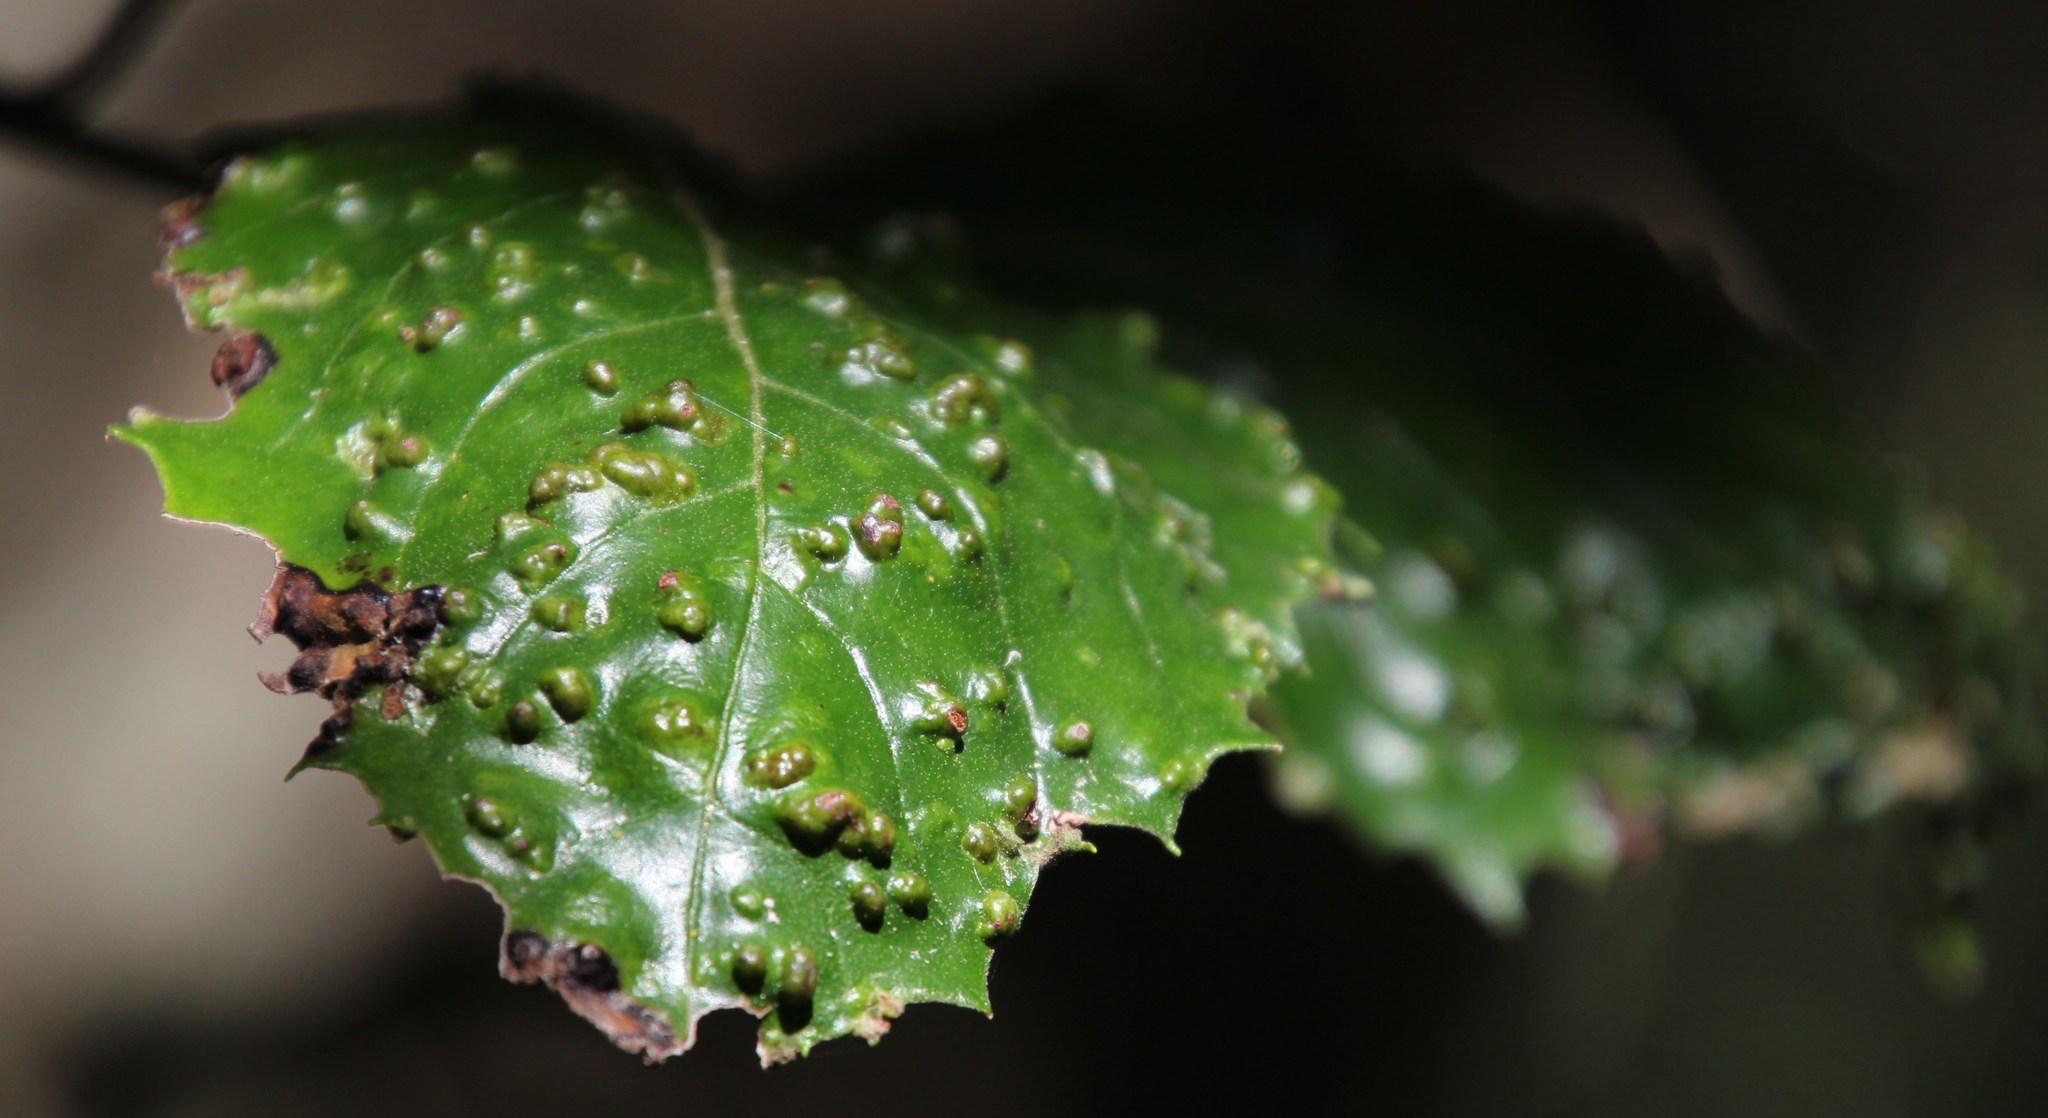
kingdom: Plantae
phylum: Tracheophyta
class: Magnoliopsida
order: Cornales
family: Curtisiaceae
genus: Curtisia
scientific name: Curtisia dentata
